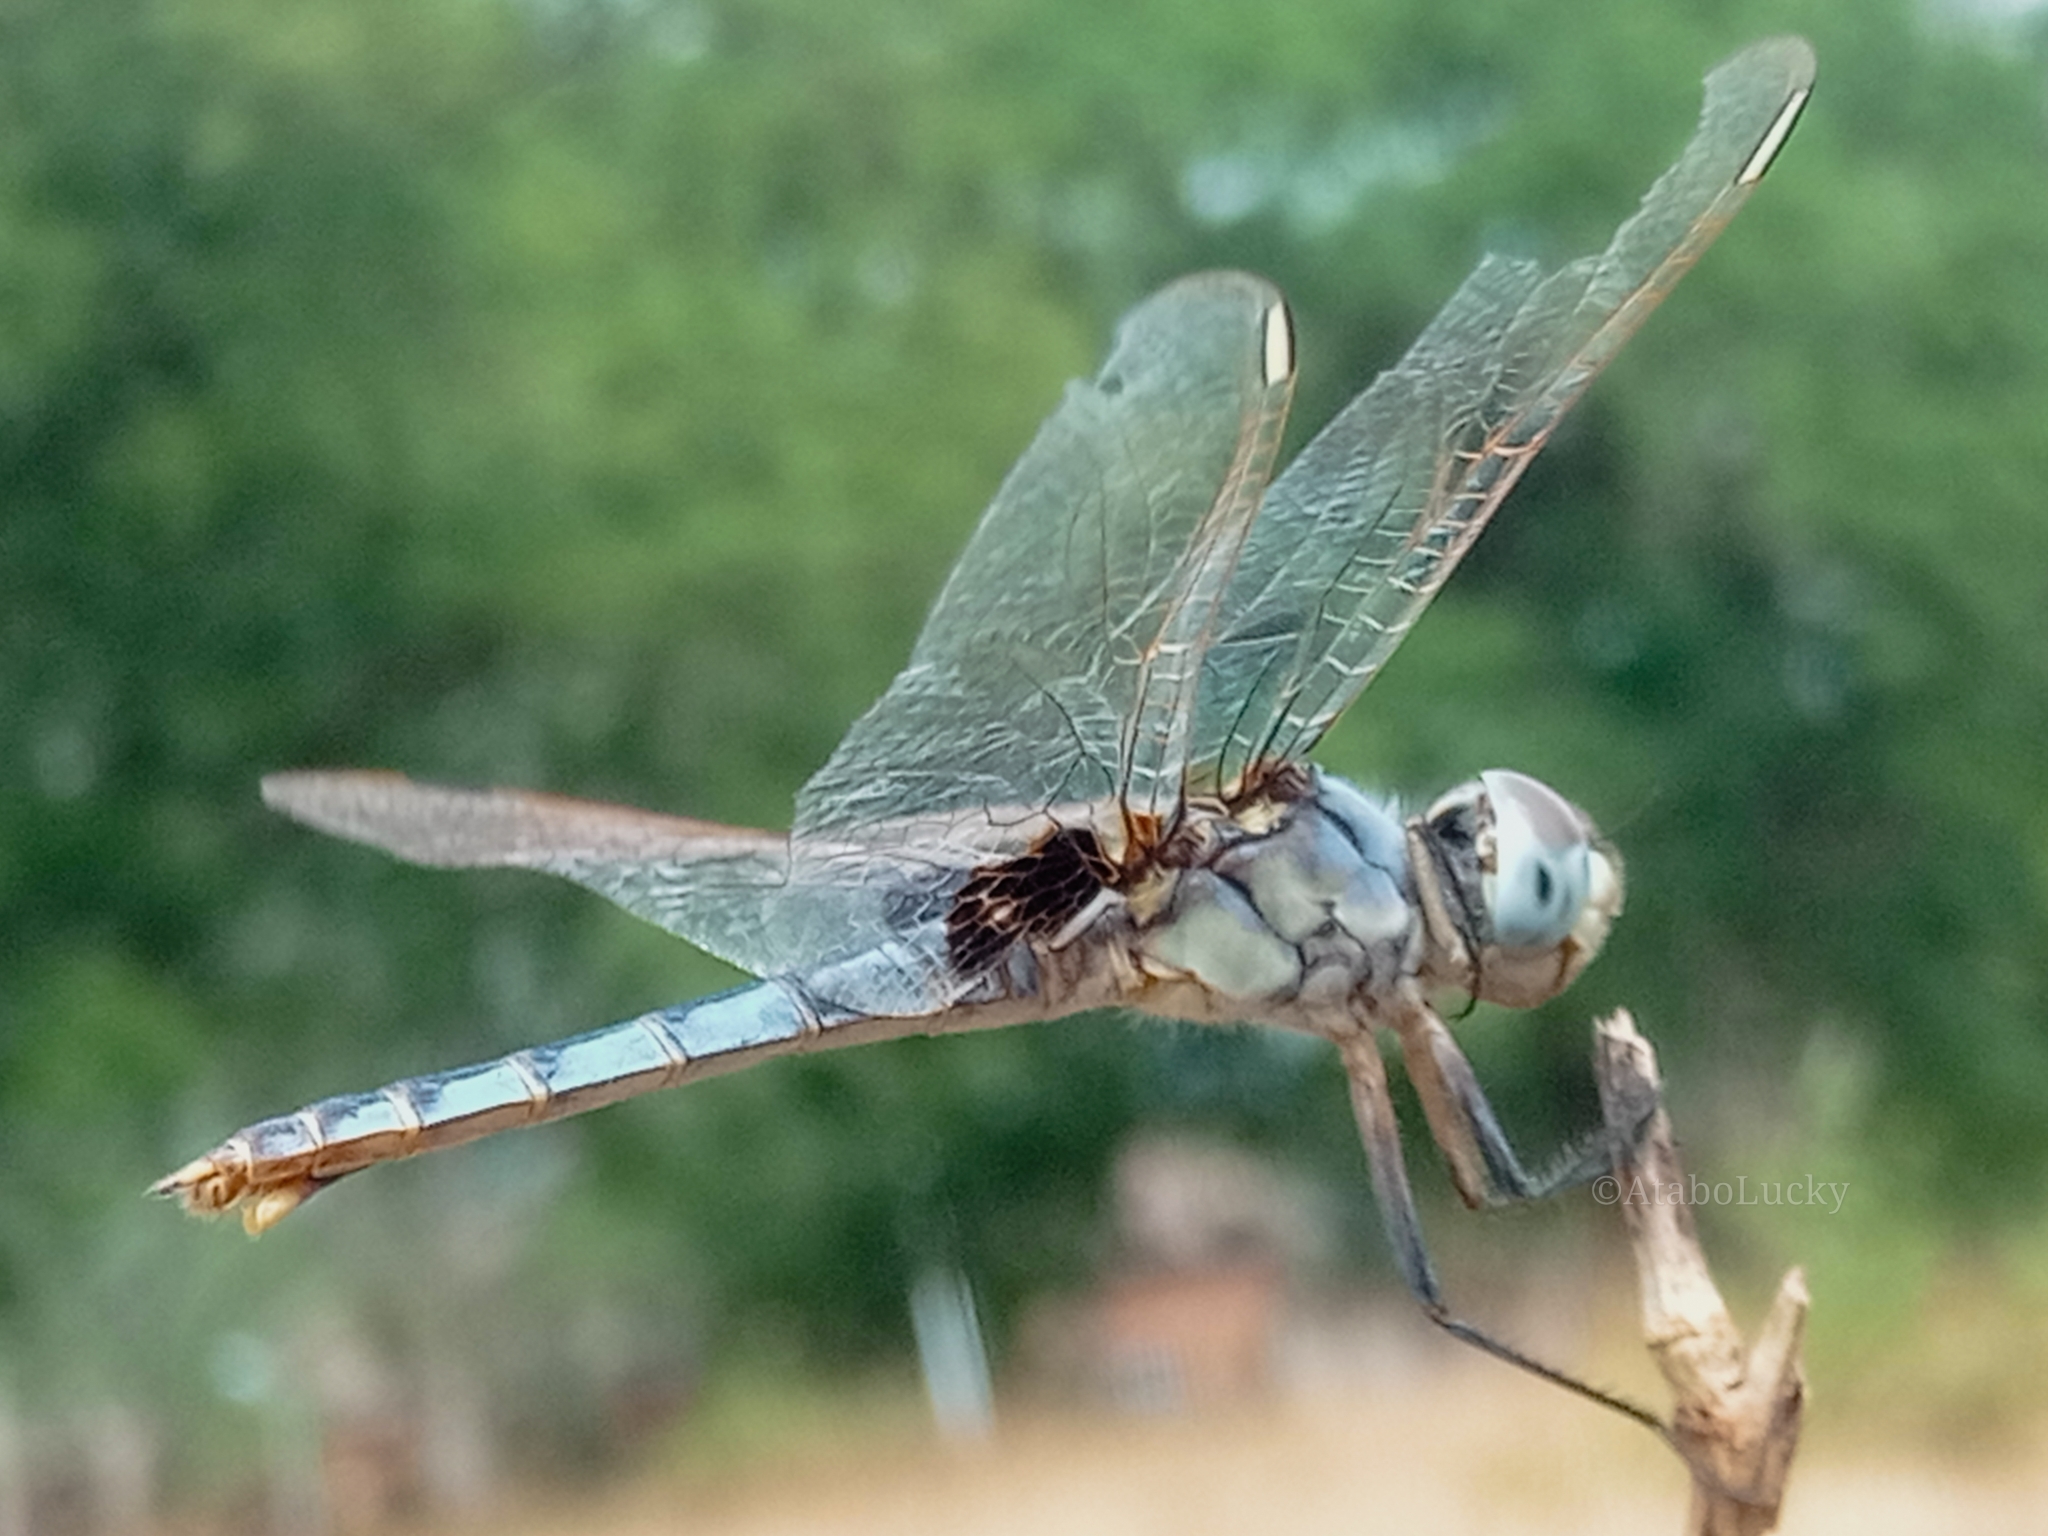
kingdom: Animalia
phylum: Arthropoda
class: Insecta
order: Odonata
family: Libellulidae
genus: Urothemis
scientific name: Urothemis edwardsii
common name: Blue basker
